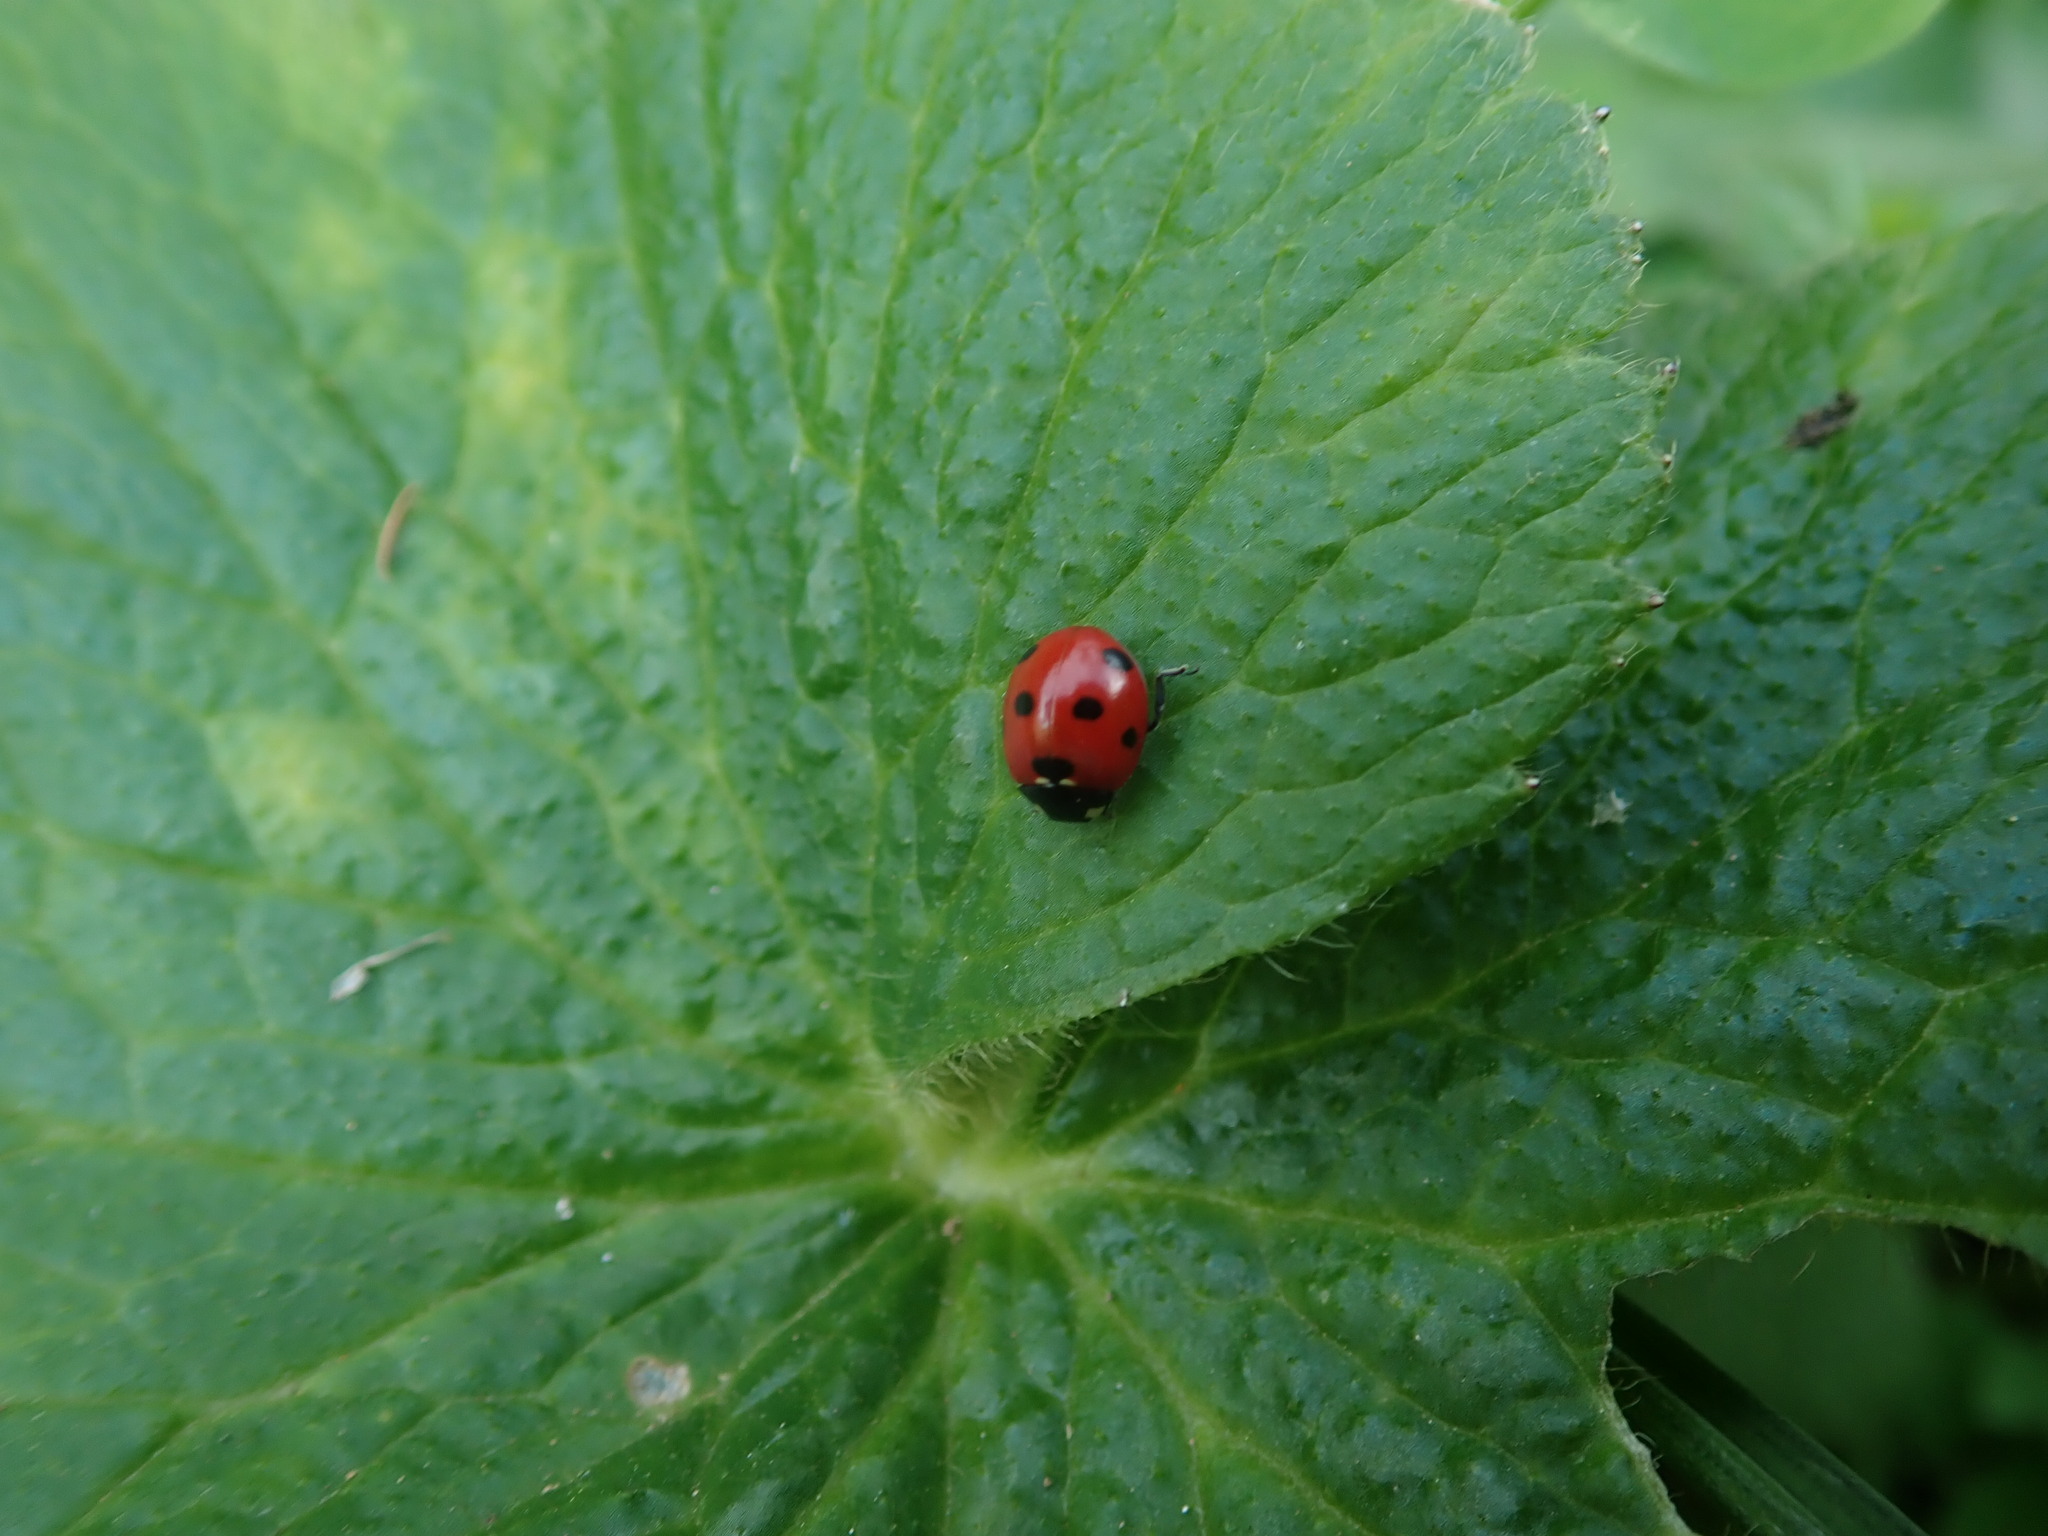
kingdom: Animalia
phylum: Arthropoda
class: Insecta
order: Coleoptera
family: Coccinellidae
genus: Coccinella
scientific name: Coccinella algerica
